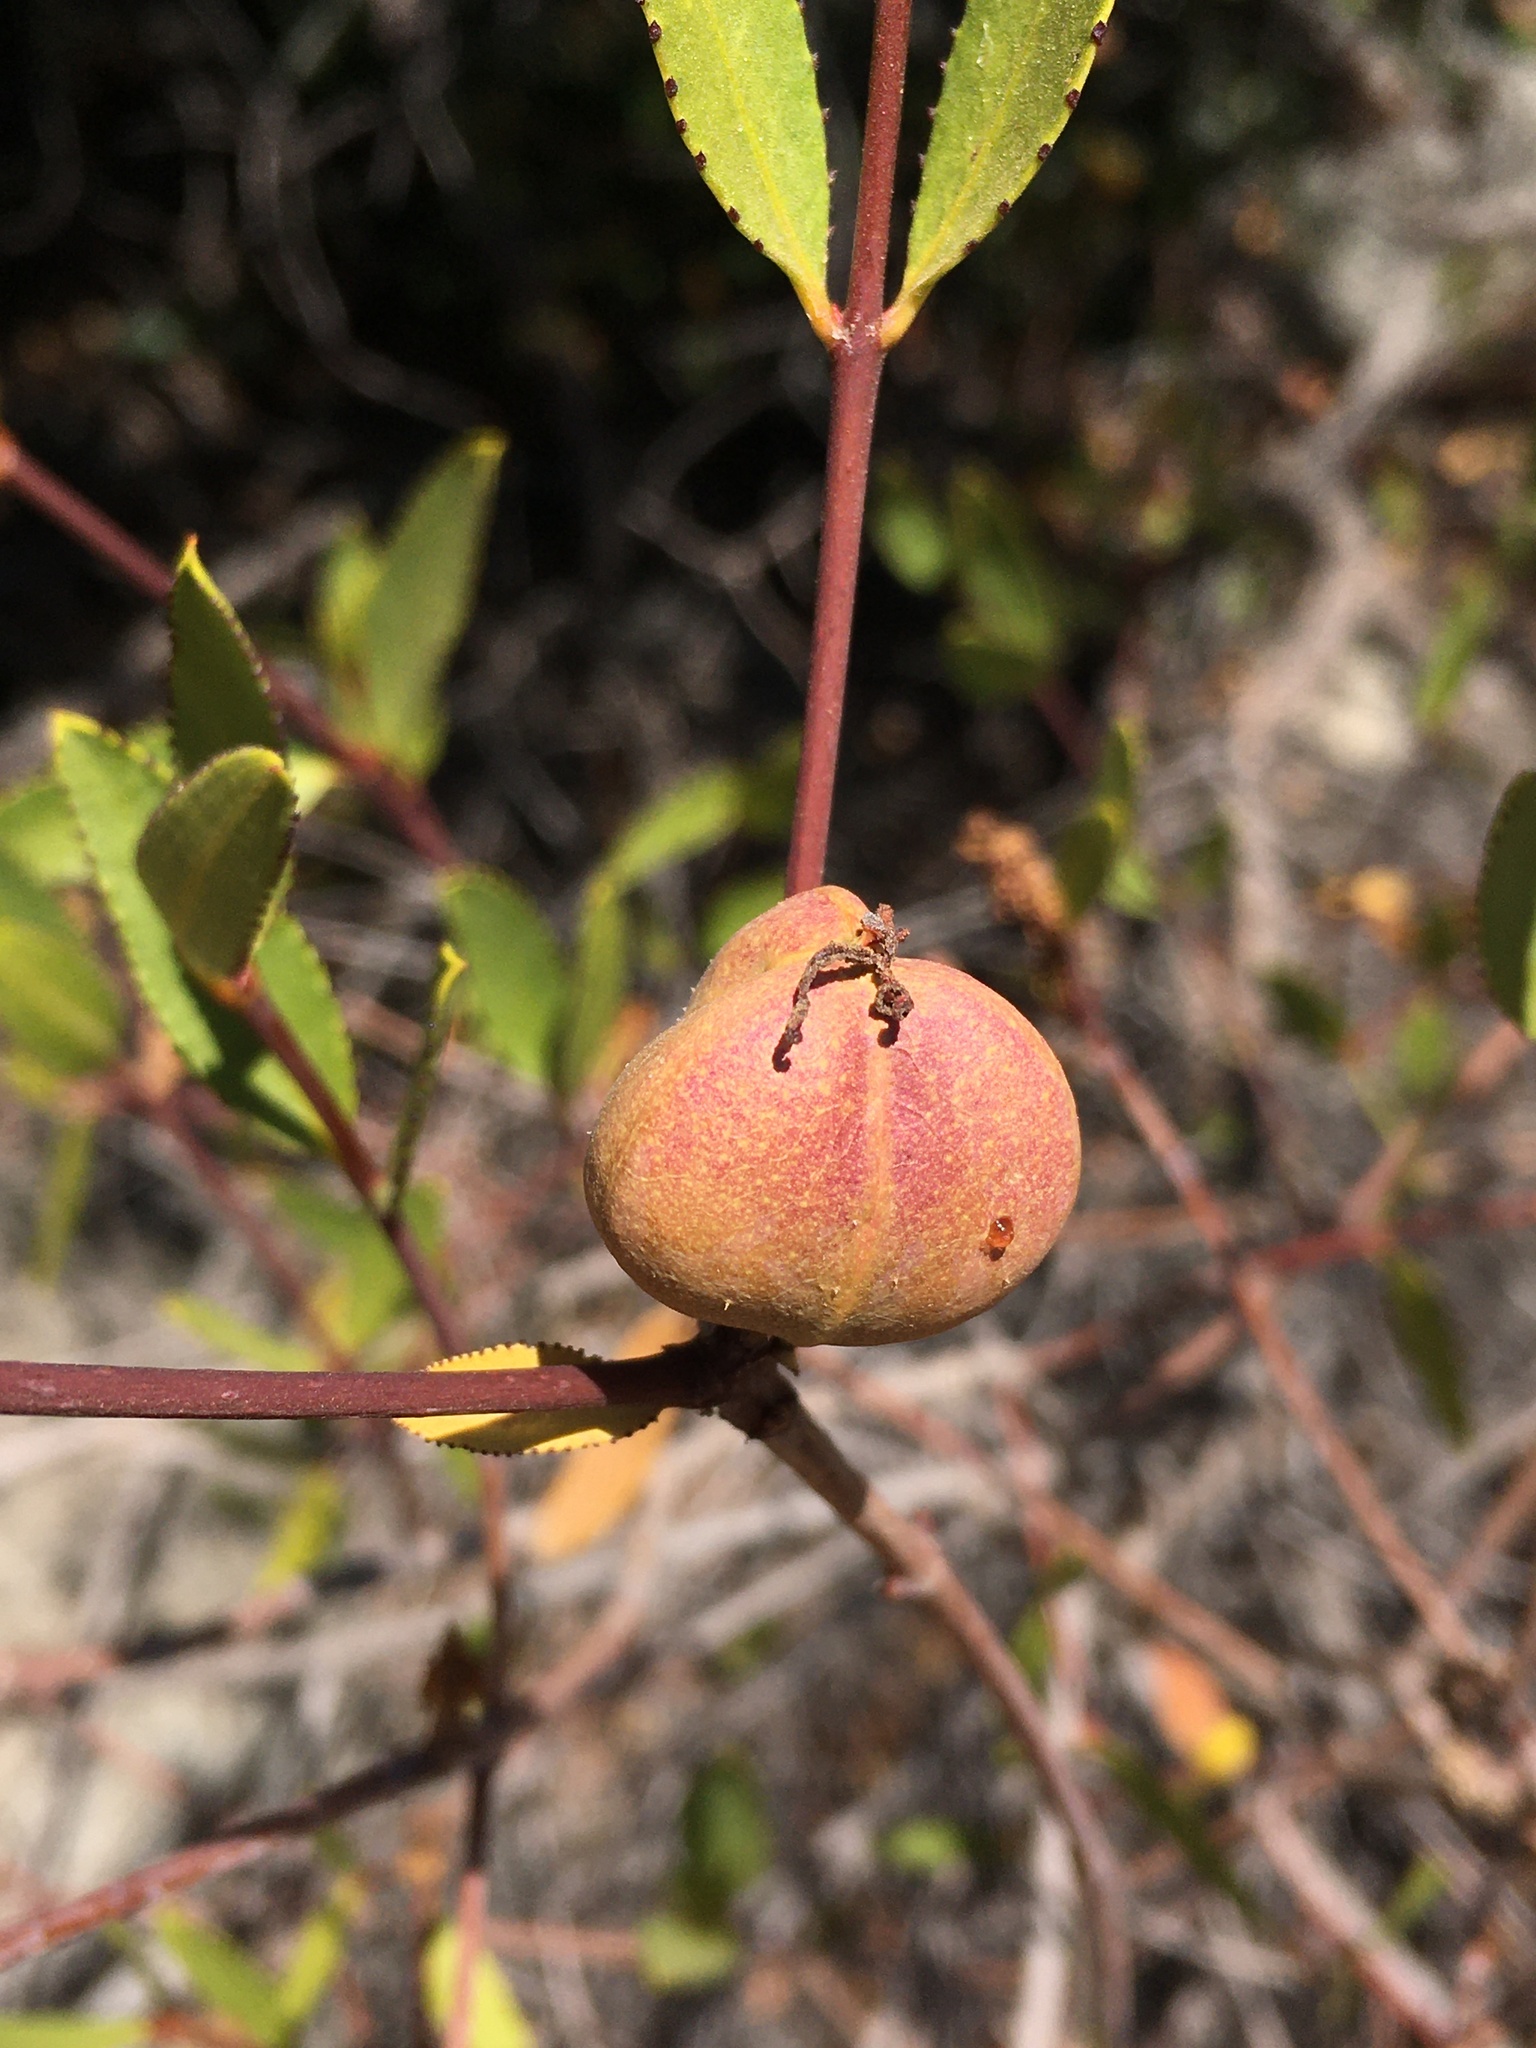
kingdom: Plantae
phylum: Tracheophyta
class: Magnoliopsida
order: Malpighiales
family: Euphorbiaceae
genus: Colliguaja
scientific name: Colliguaja odorifera
